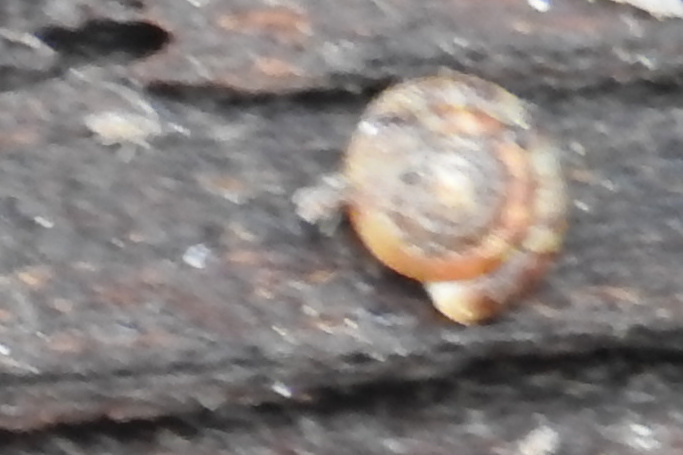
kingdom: Animalia
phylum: Mollusca
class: Gastropoda
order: Stylommatophora
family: Discidae
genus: Discus
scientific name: Discus rotundatus
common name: Rounded snail
